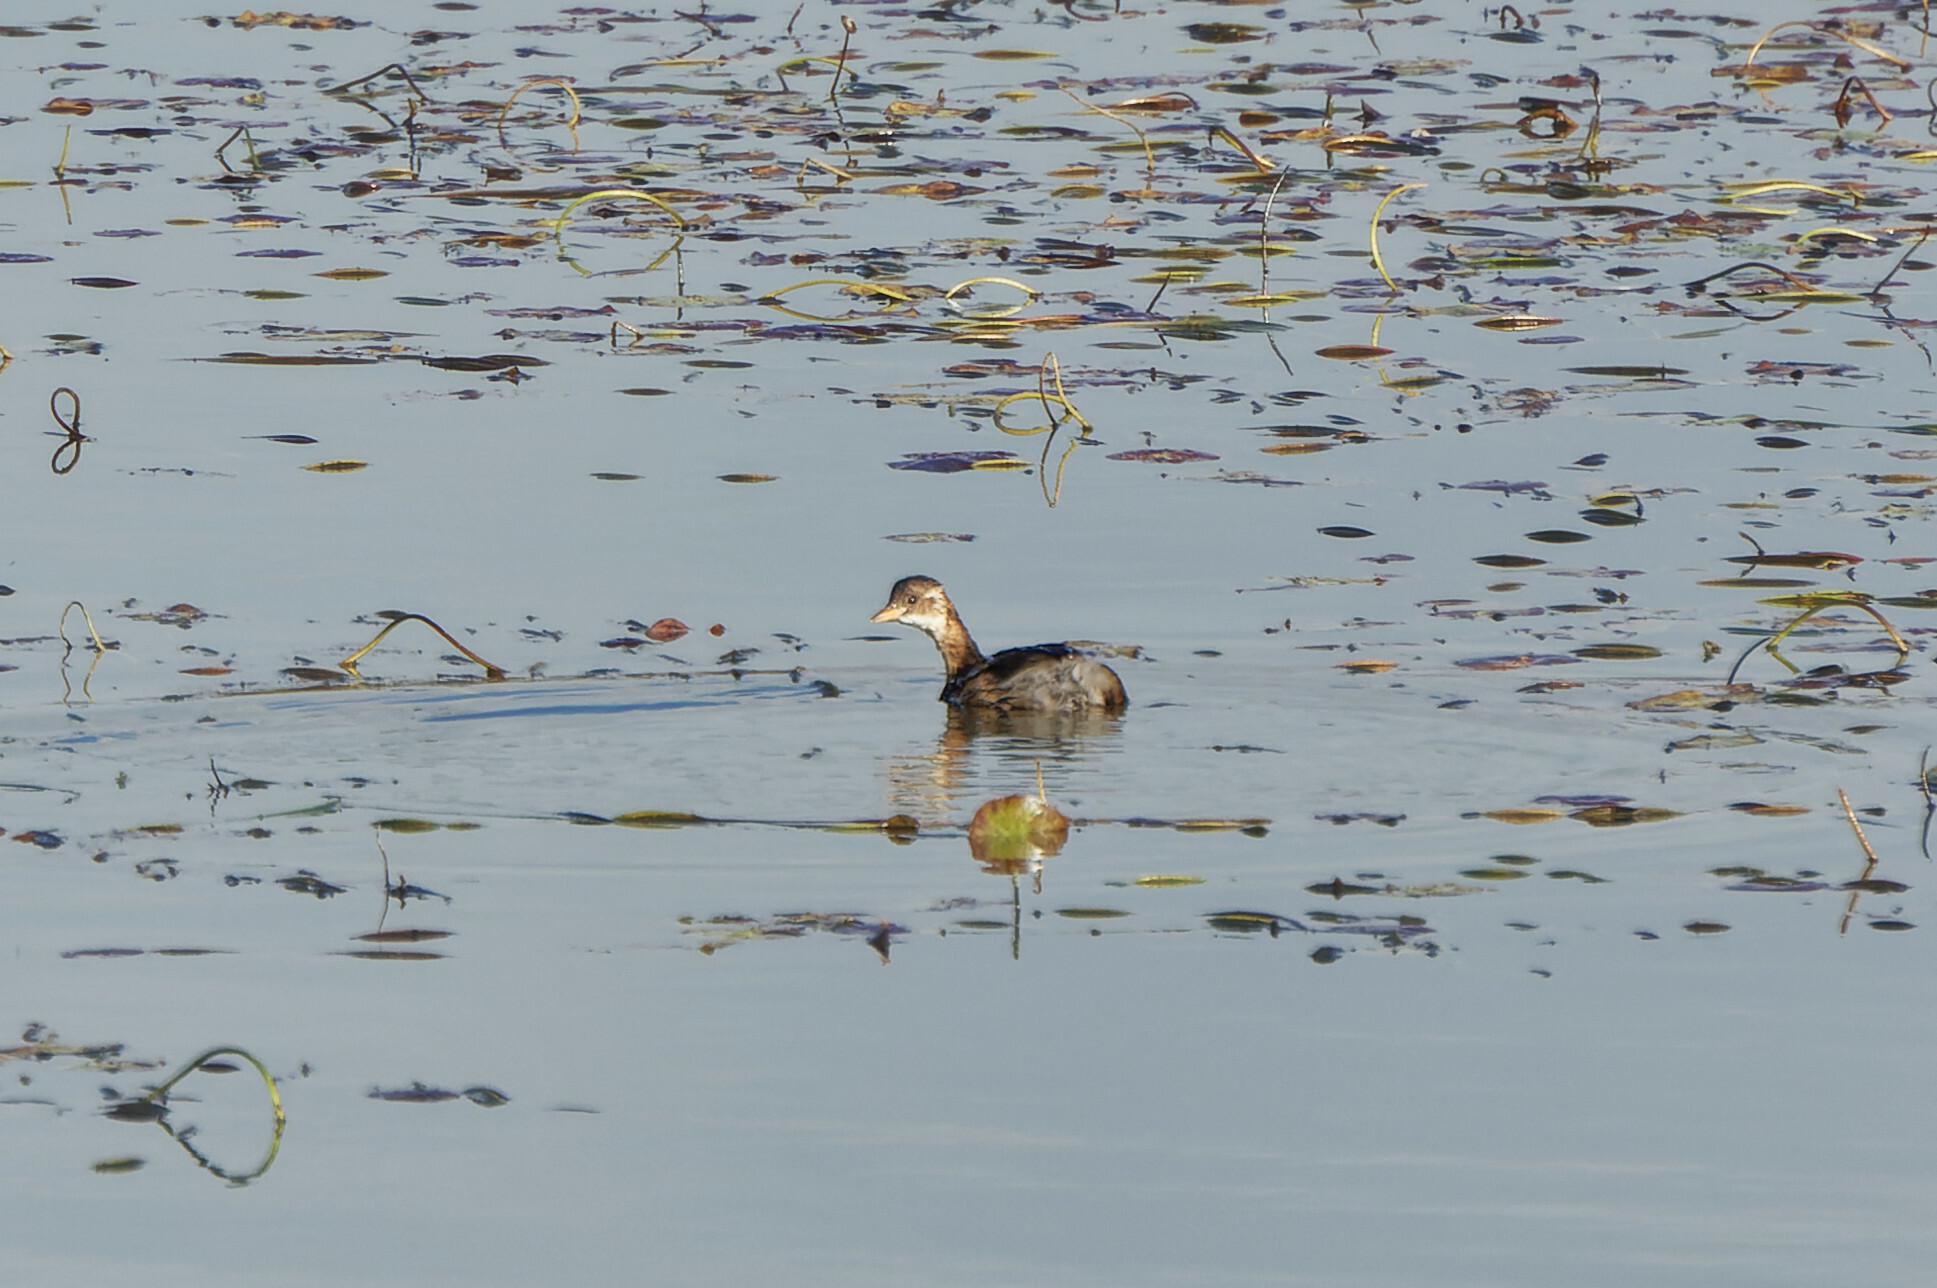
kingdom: Animalia
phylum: Chordata
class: Aves
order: Podicipediformes
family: Podicipedidae
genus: Tachybaptus
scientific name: Tachybaptus ruficollis
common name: Little grebe
